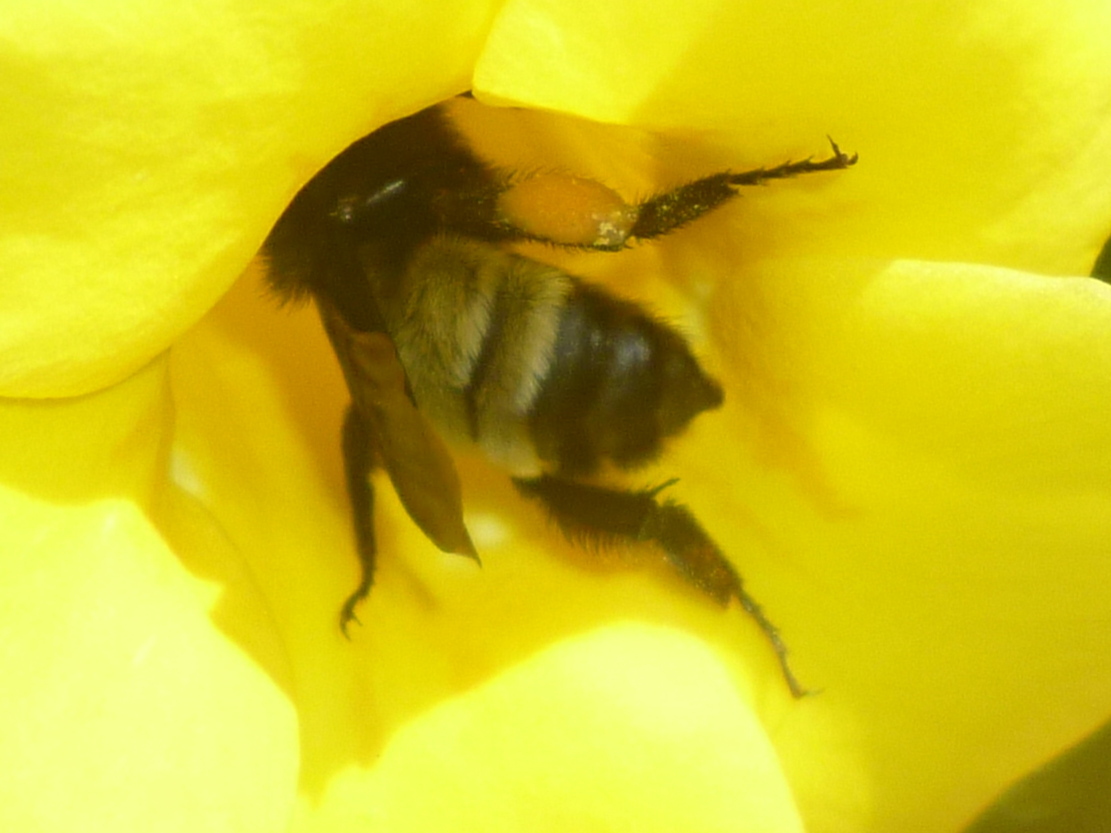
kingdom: Animalia
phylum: Arthropoda
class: Insecta
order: Hymenoptera
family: Apidae
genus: Bombus
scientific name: Bombus pensylvanicus
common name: Bumble bee
